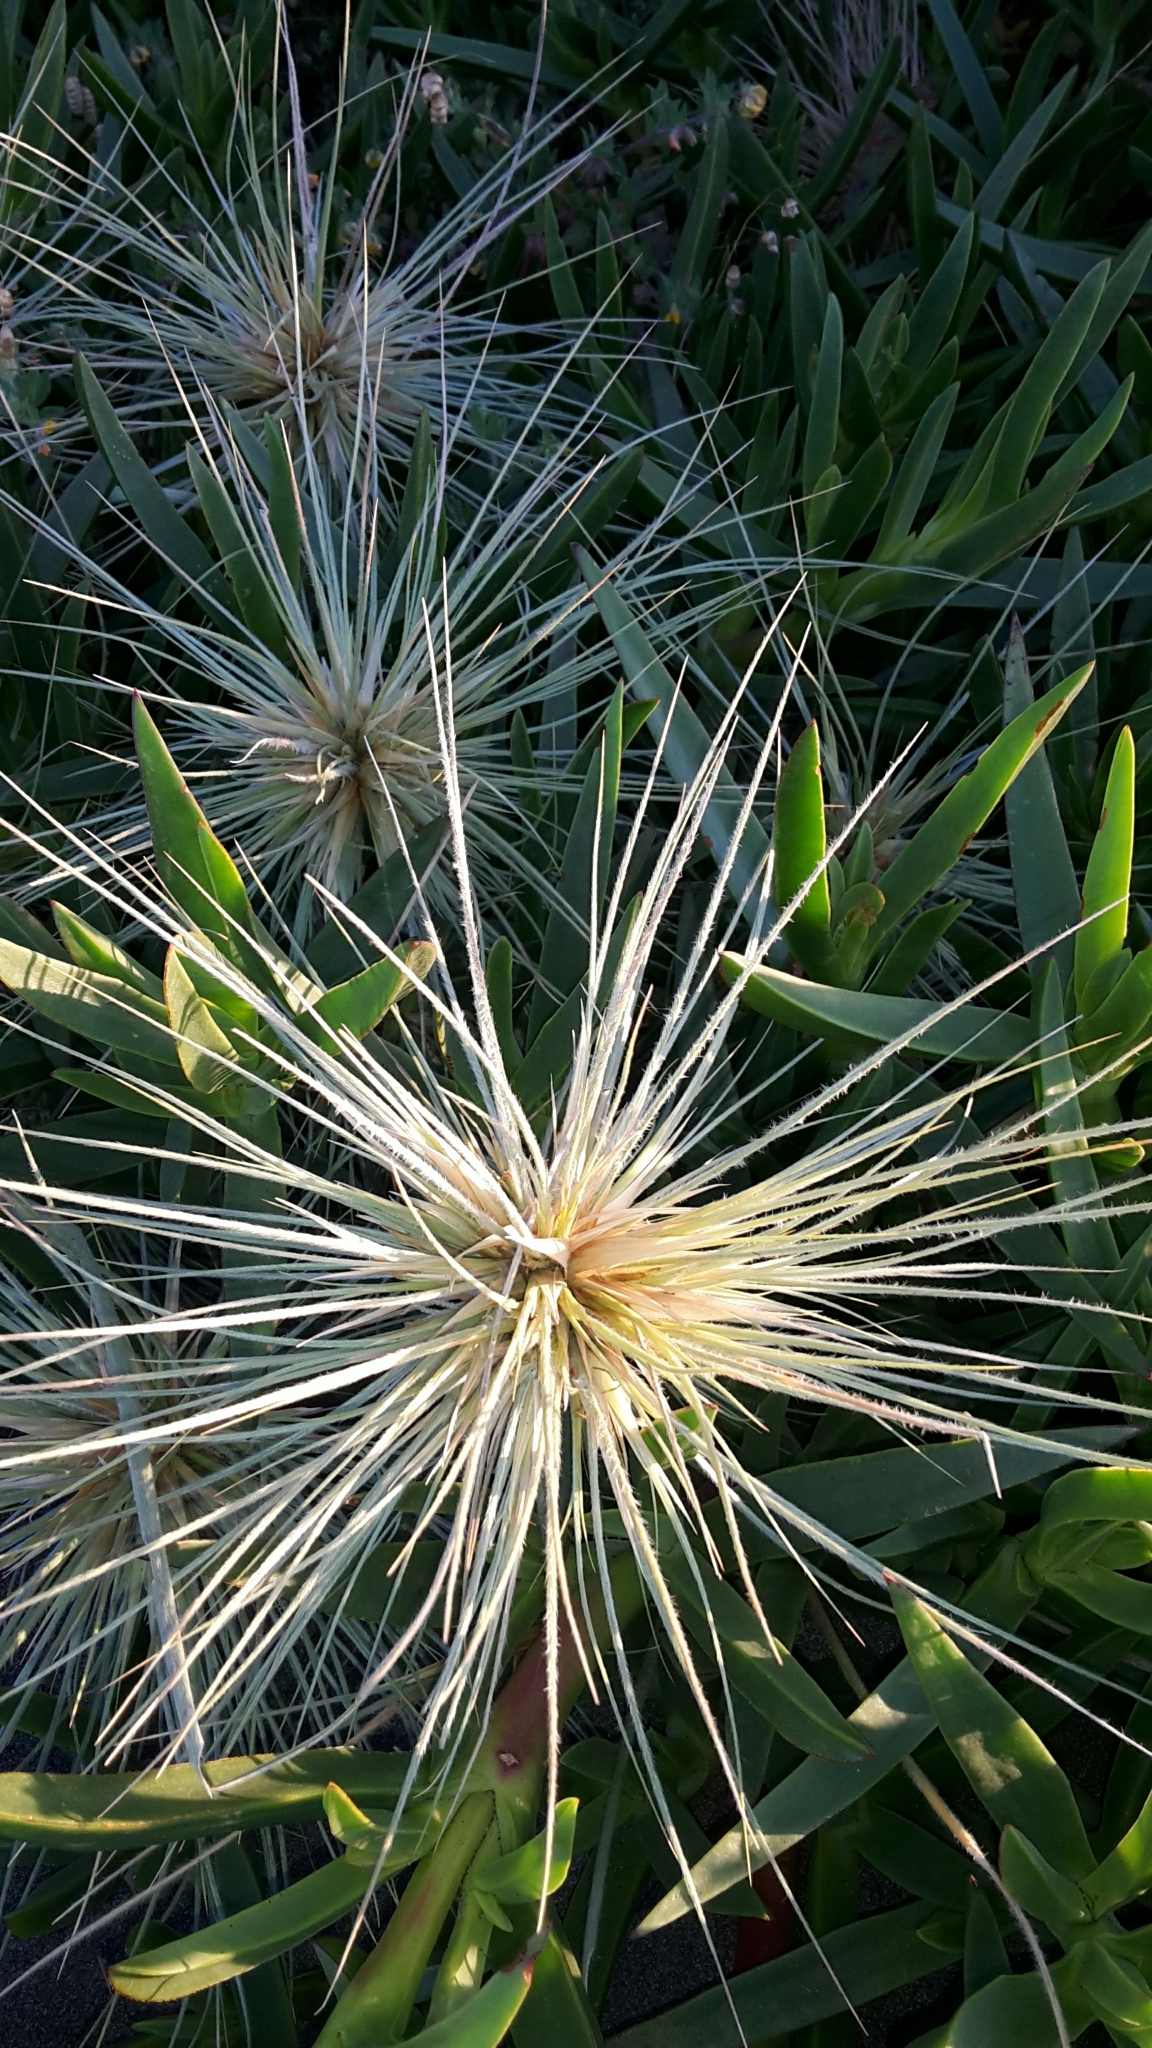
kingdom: Plantae
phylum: Tracheophyta
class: Liliopsida
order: Poales
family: Poaceae
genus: Spinifex
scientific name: Spinifex sericeus
